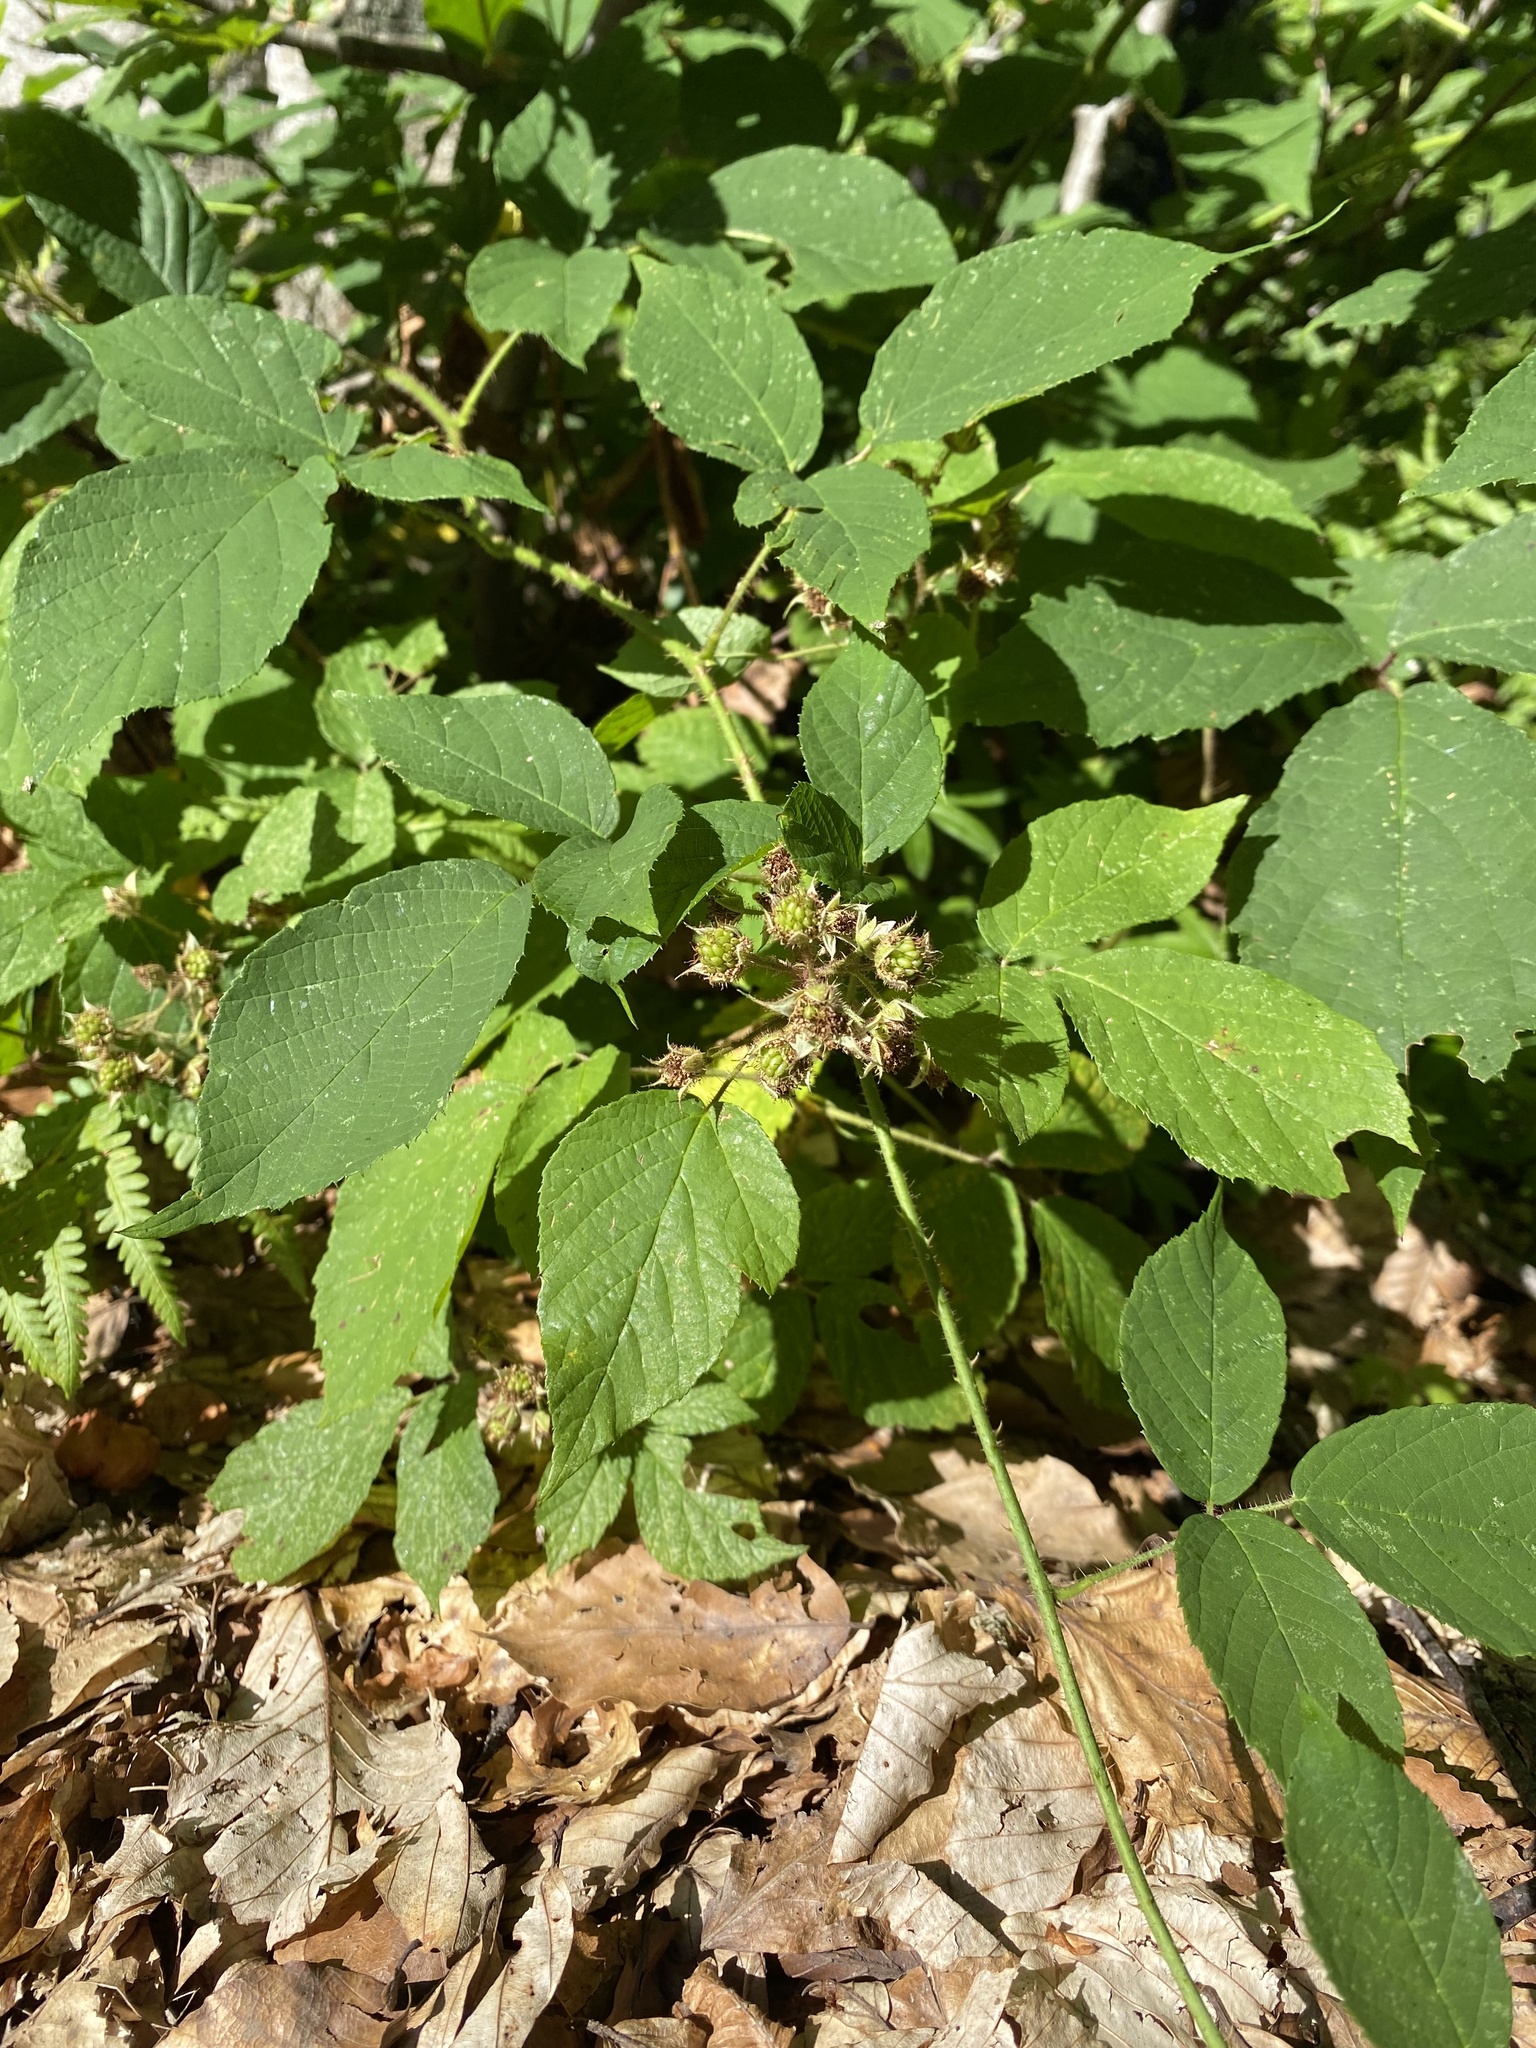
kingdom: Plantae
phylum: Tracheophyta
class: Magnoliopsida
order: Rosales
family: Rosaceae
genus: Rubus
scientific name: Rubus hirtus
